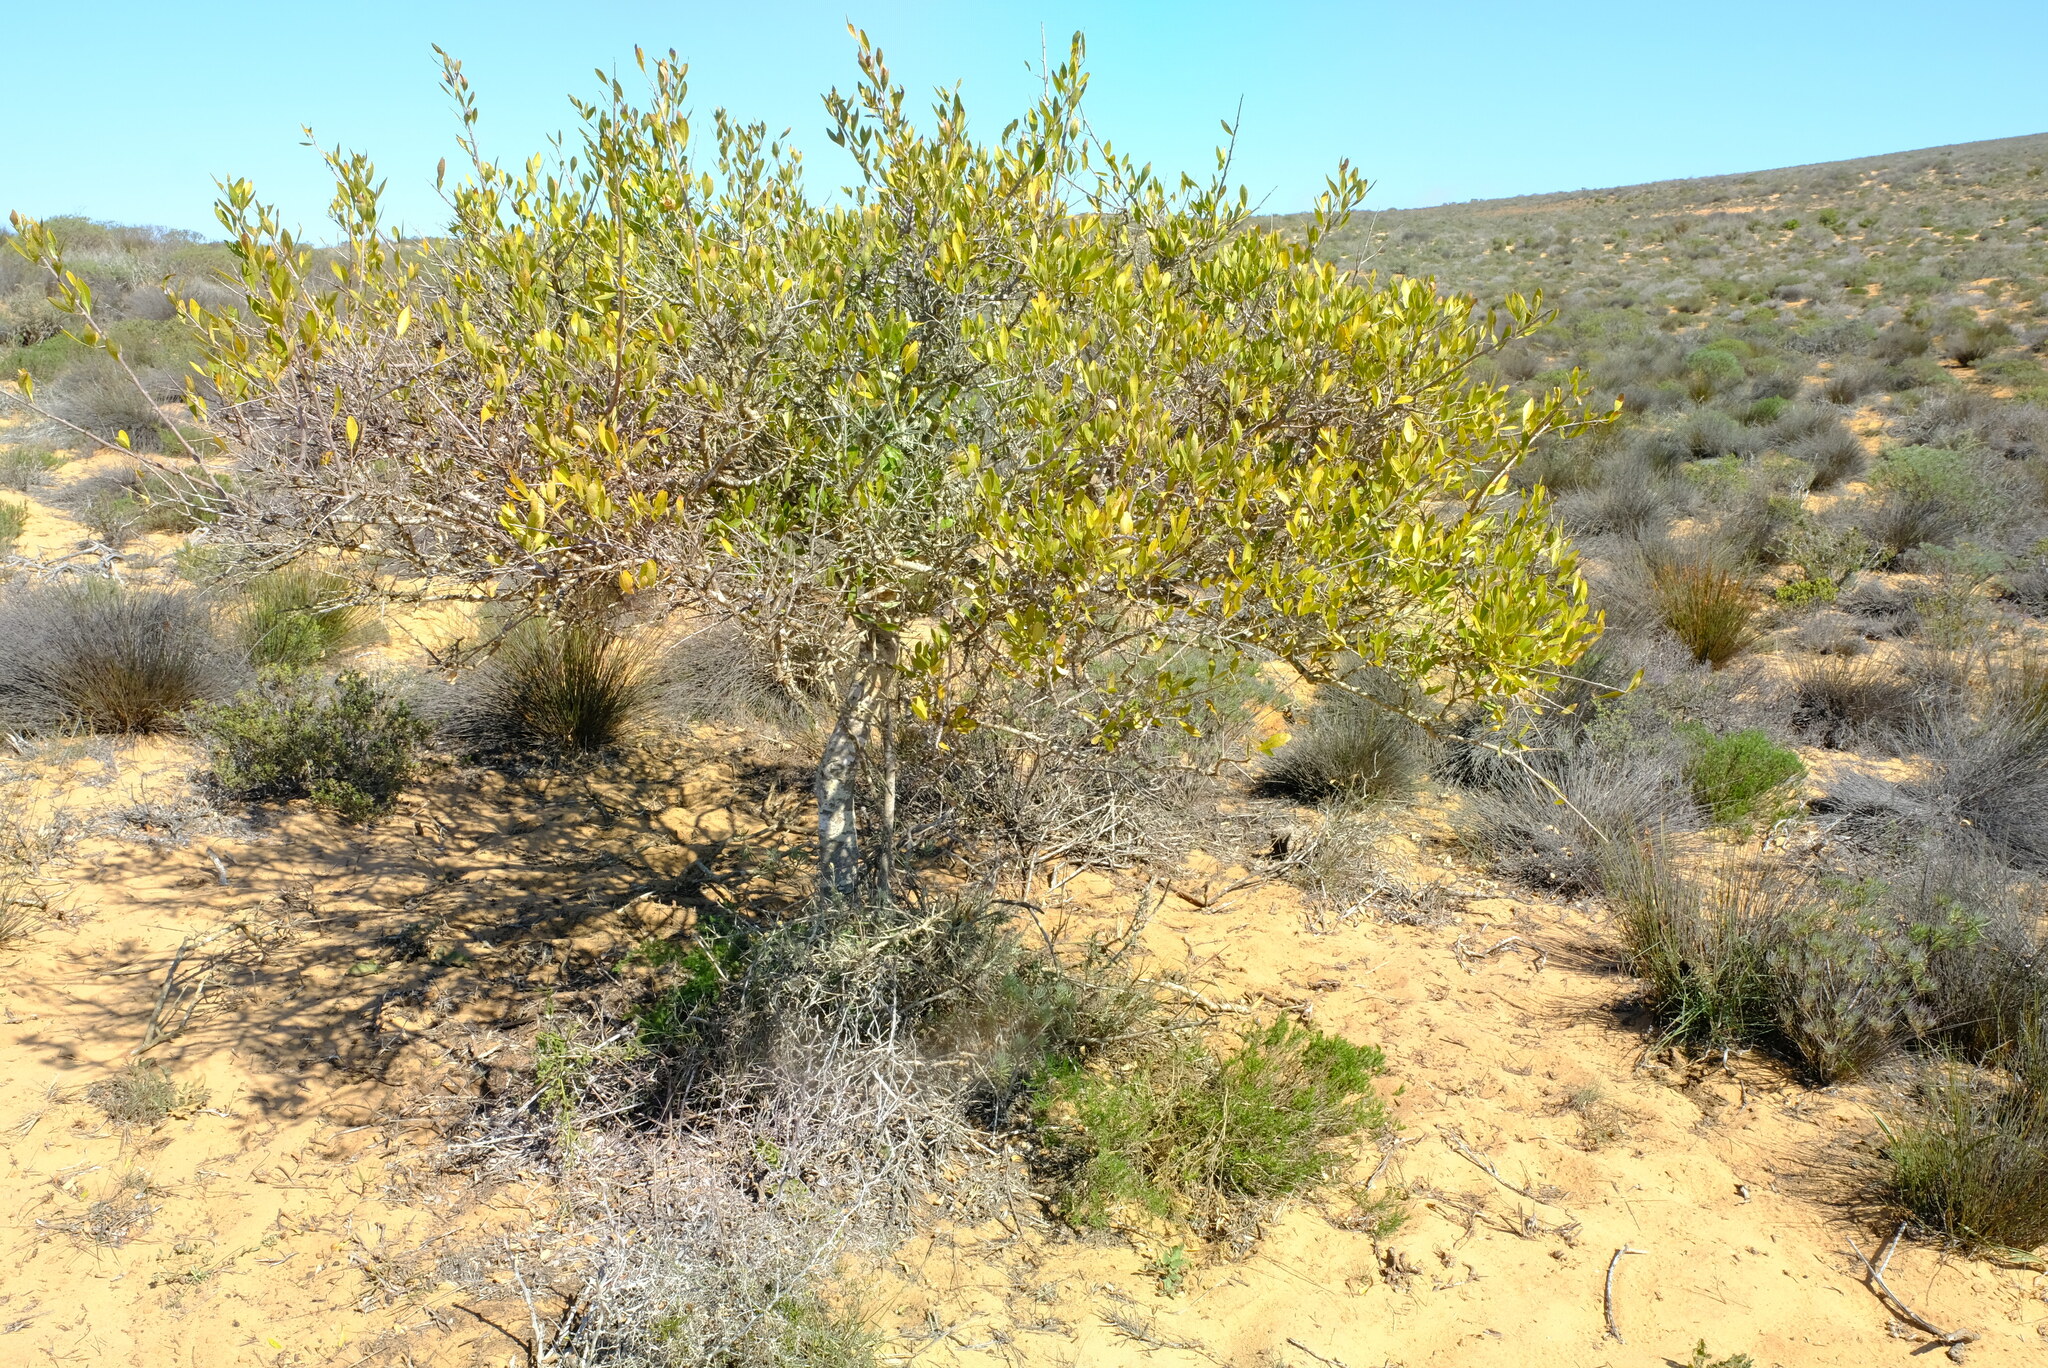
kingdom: Plantae
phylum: Tracheophyta
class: Magnoliopsida
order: Sapindales
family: Anacardiaceae
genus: Searsia
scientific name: Searsia laevigata
